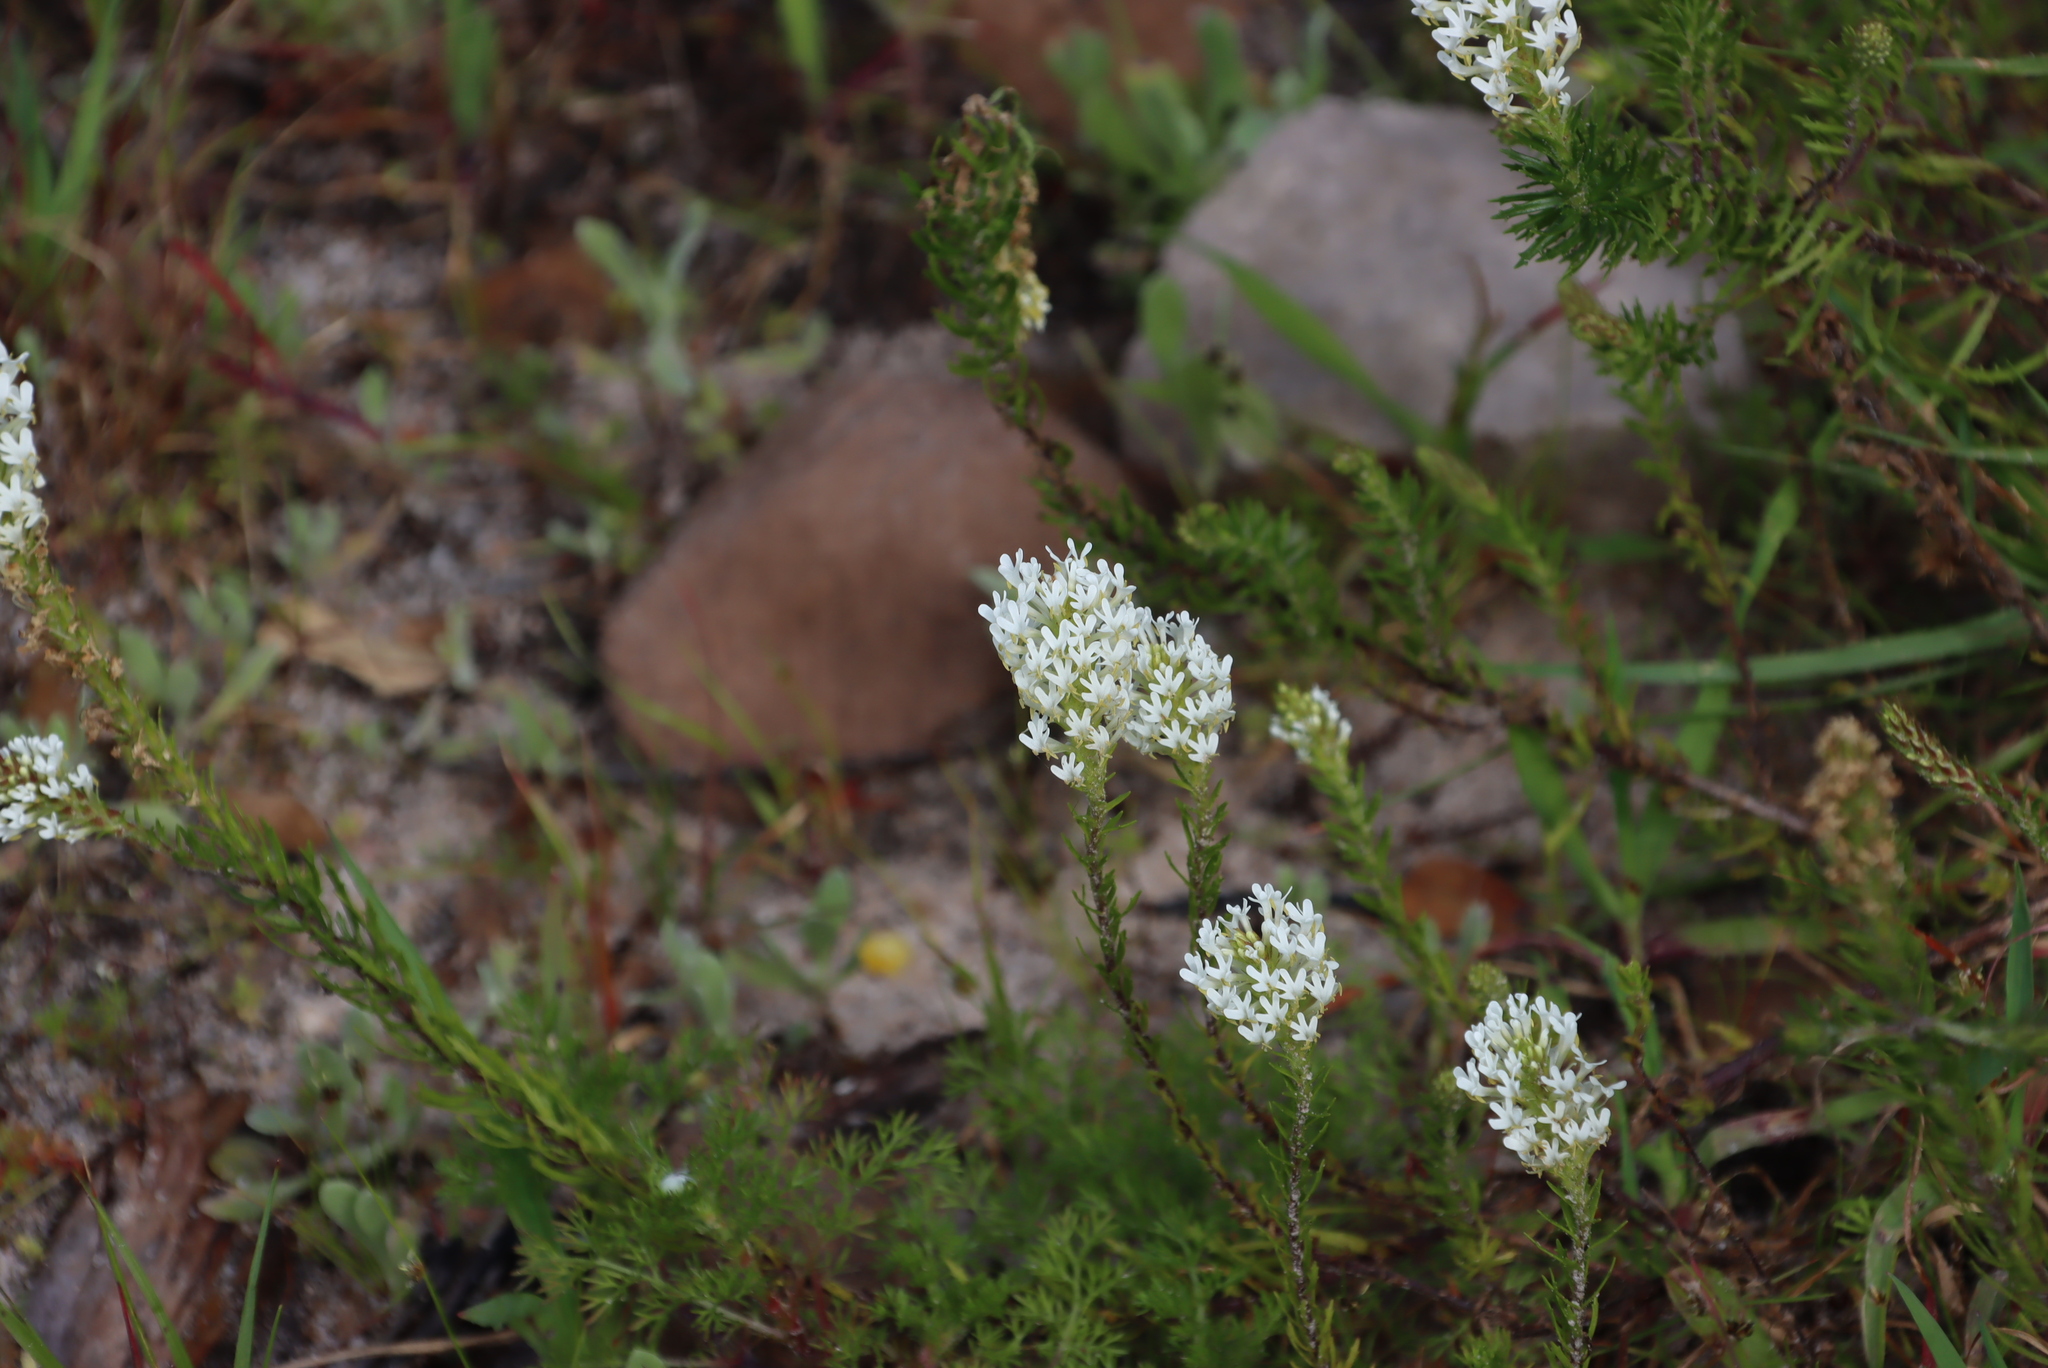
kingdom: Plantae
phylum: Tracheophyta
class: Magnoliopsida
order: Lamiales
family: Scrophulariaceae
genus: Dischisma
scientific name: Dischisma ciliatum
